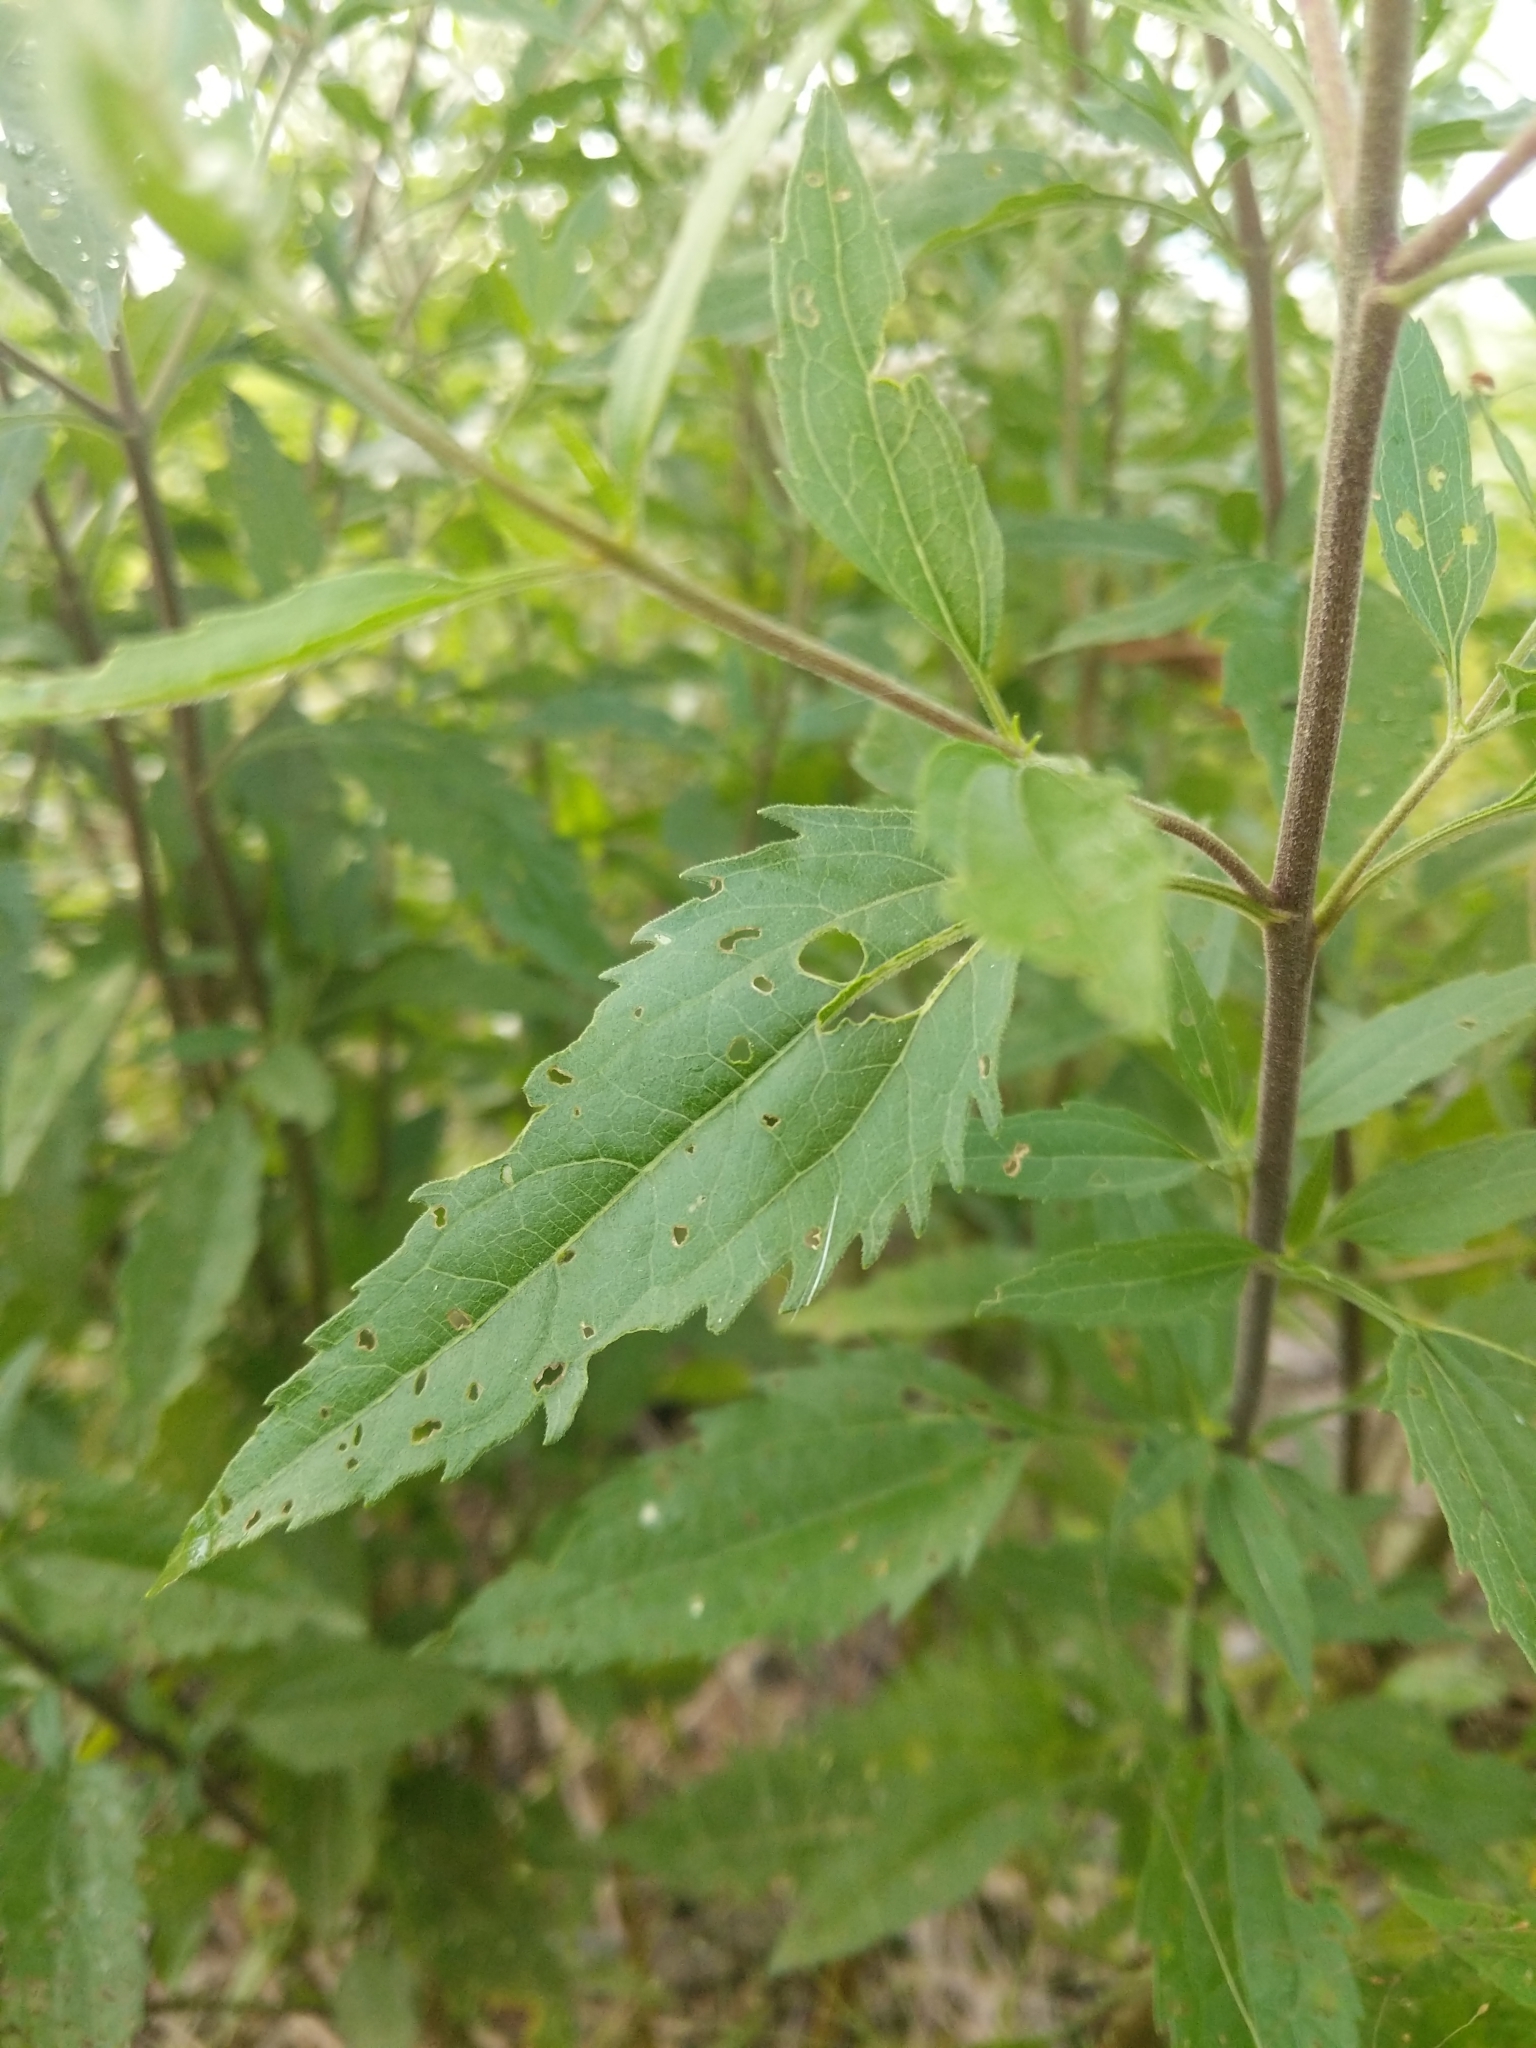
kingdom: Plantae
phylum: Tracheophyta
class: Magnoliopsida
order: Asterales
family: Asteraceae
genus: Eupatorium
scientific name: Eupatorium serotinum
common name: Late boneset
